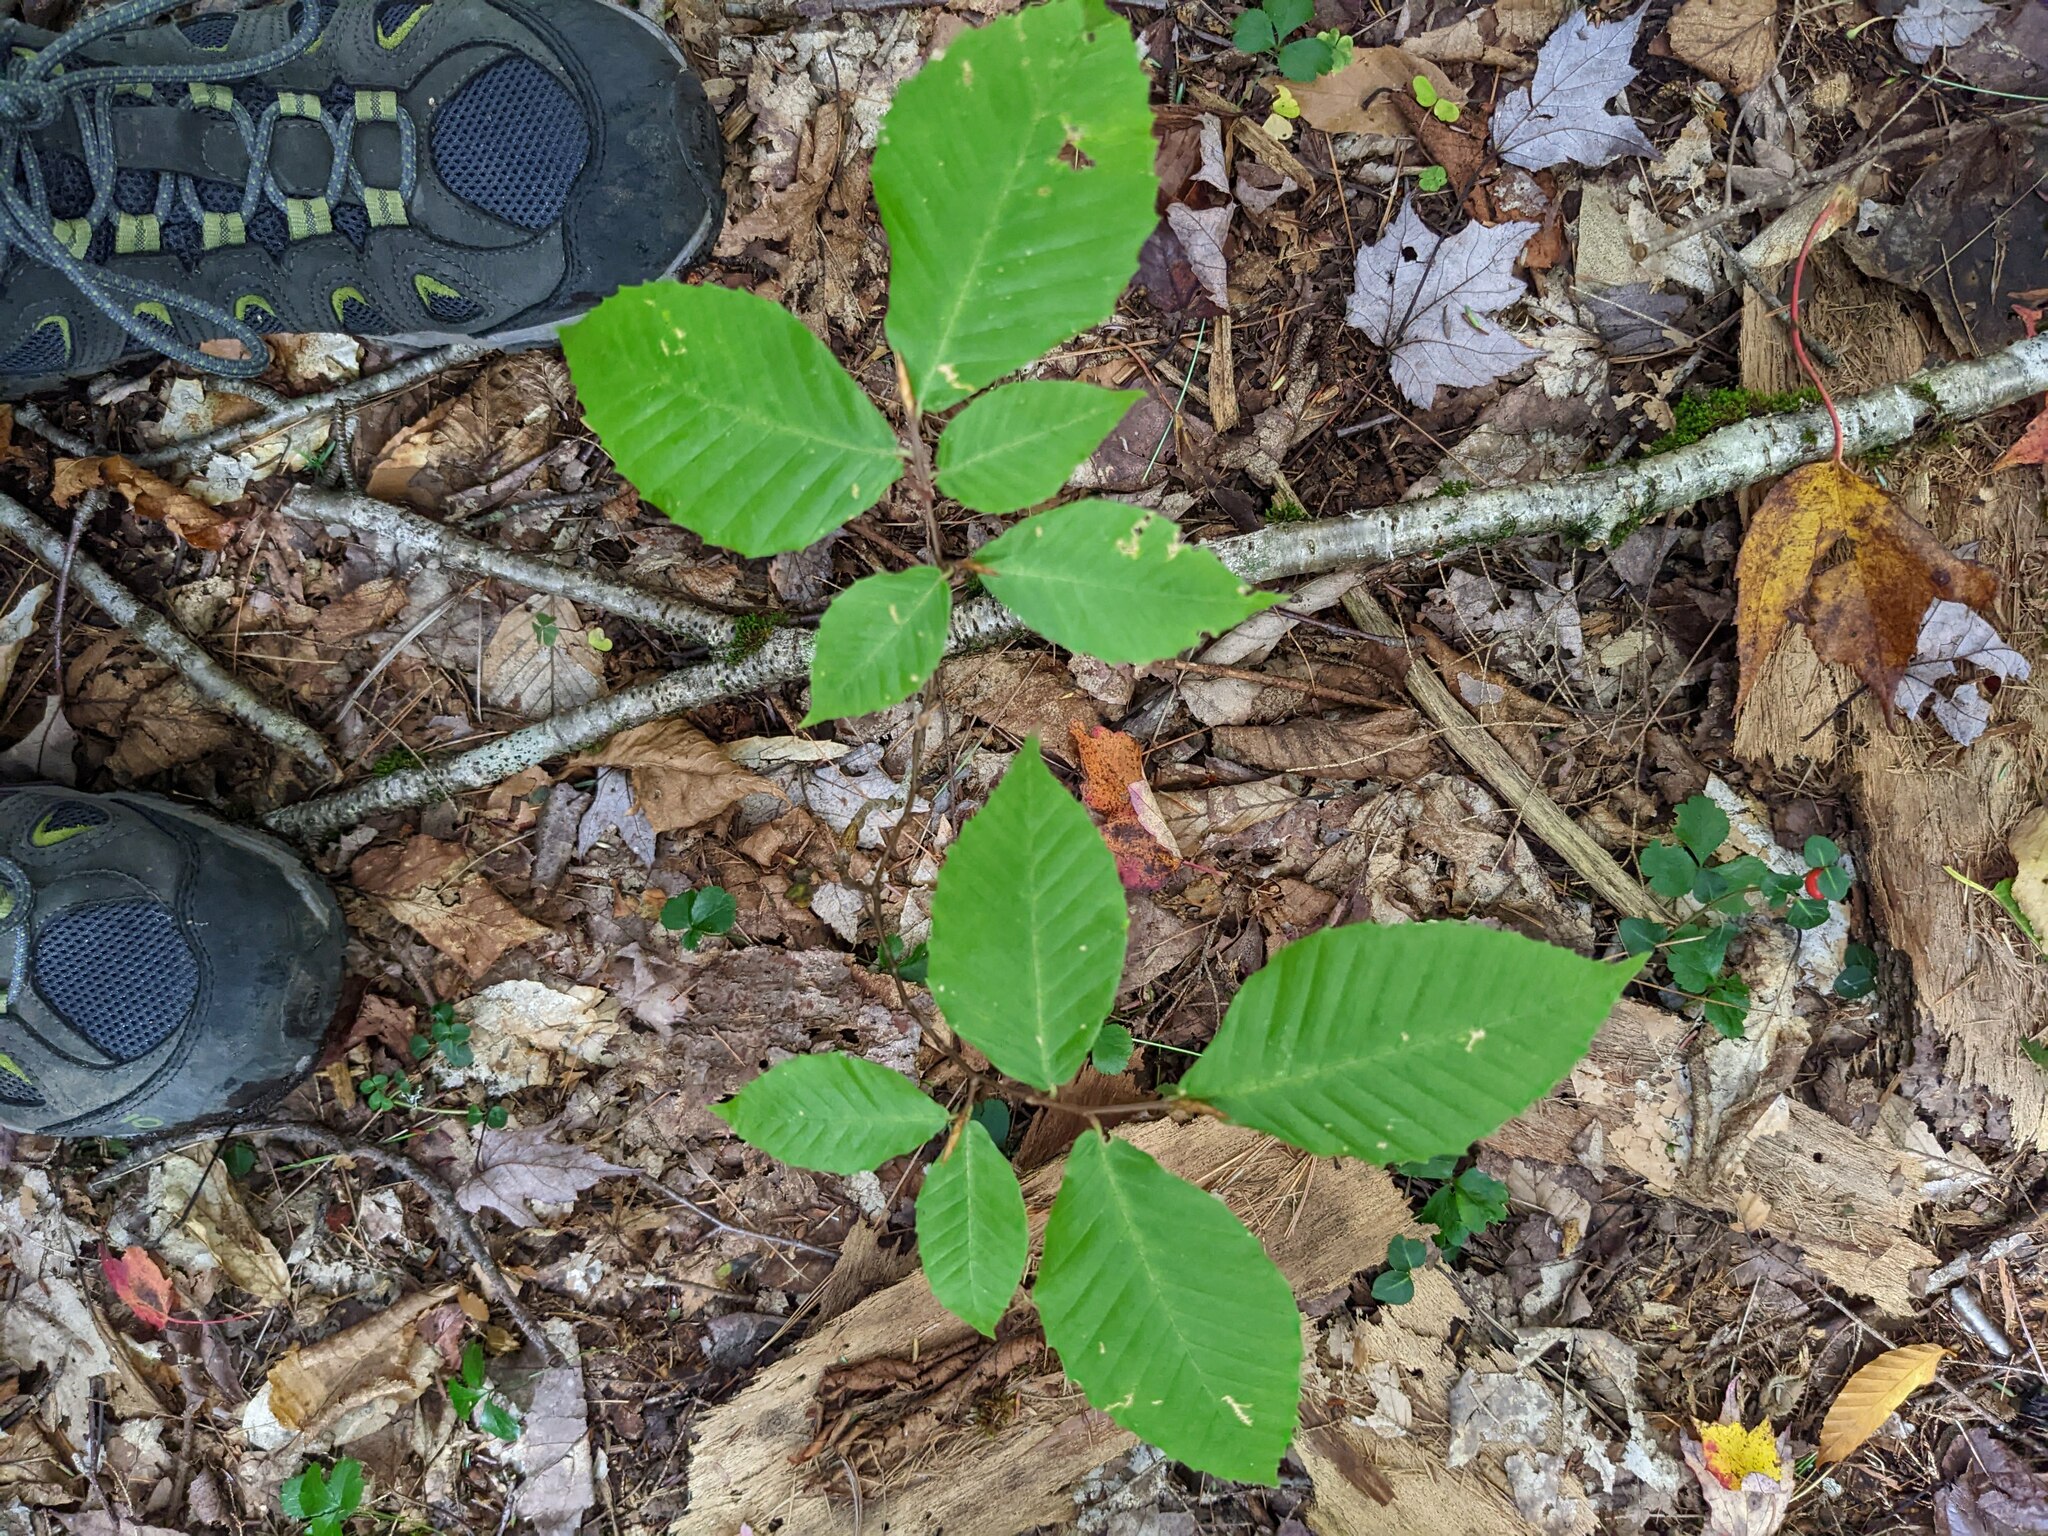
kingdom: Plantae
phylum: Tracheophyta
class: Magnoliopsida
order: Fagales
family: Fagaceae
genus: Fagus
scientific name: Fagus grandifolia
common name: American beech
